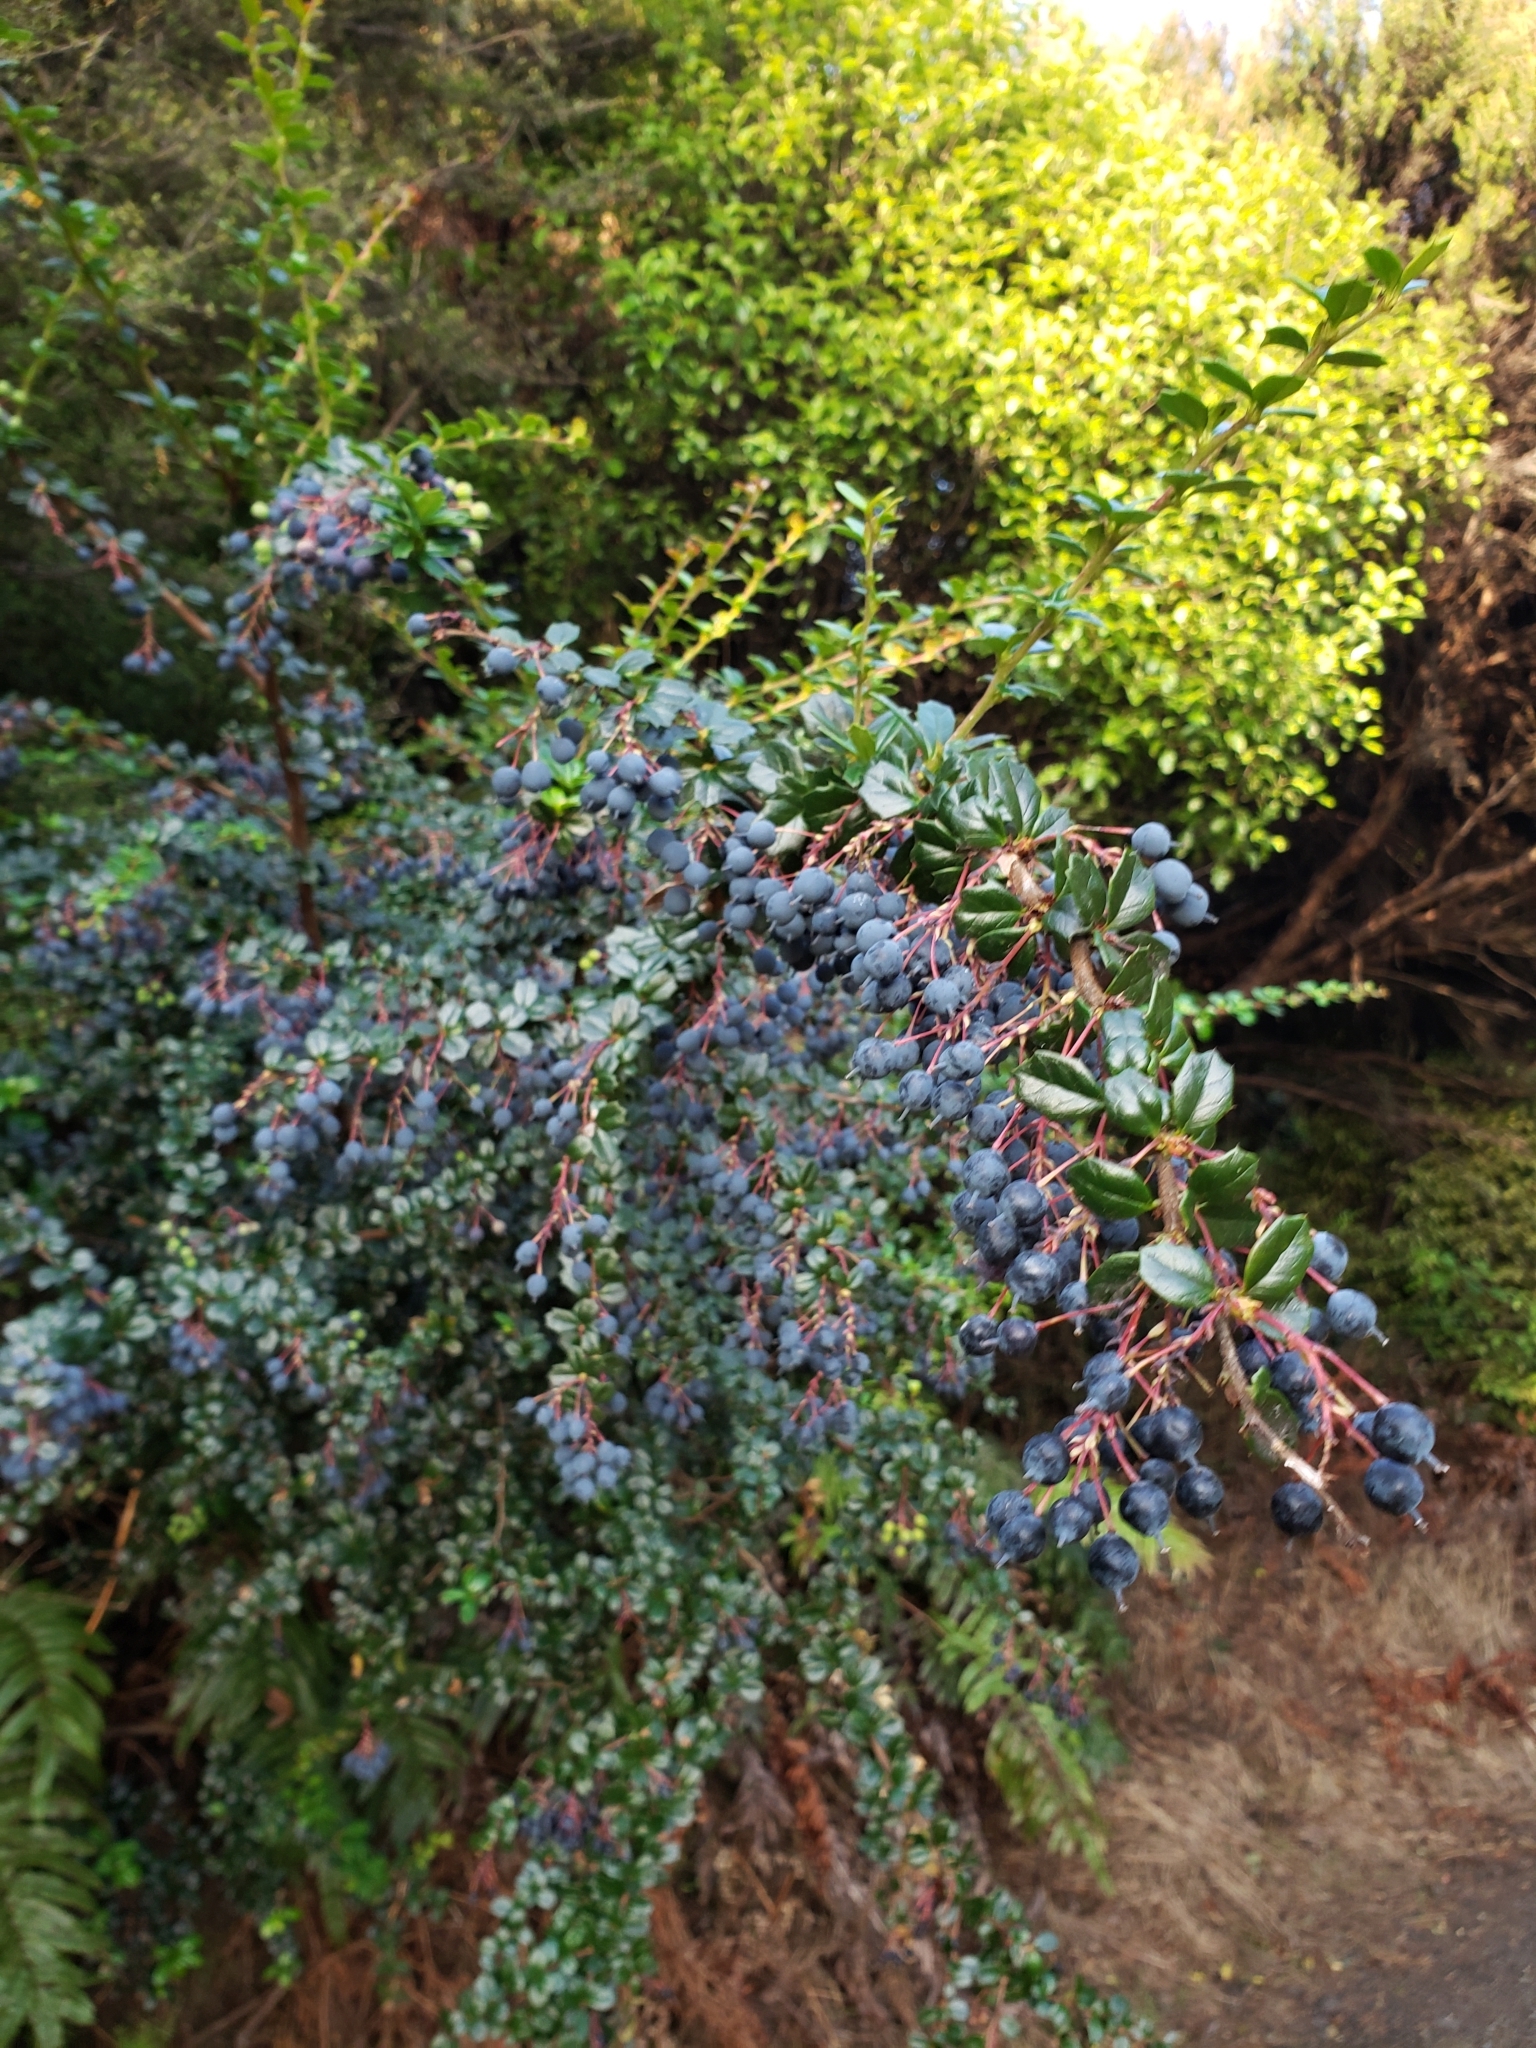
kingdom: Plantae
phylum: Tracheophyta
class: Magnoliopsida
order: Ranunculales
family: Berberidaceae
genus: Berberis
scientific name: Berberis darwinii
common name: Darwin's barberry
